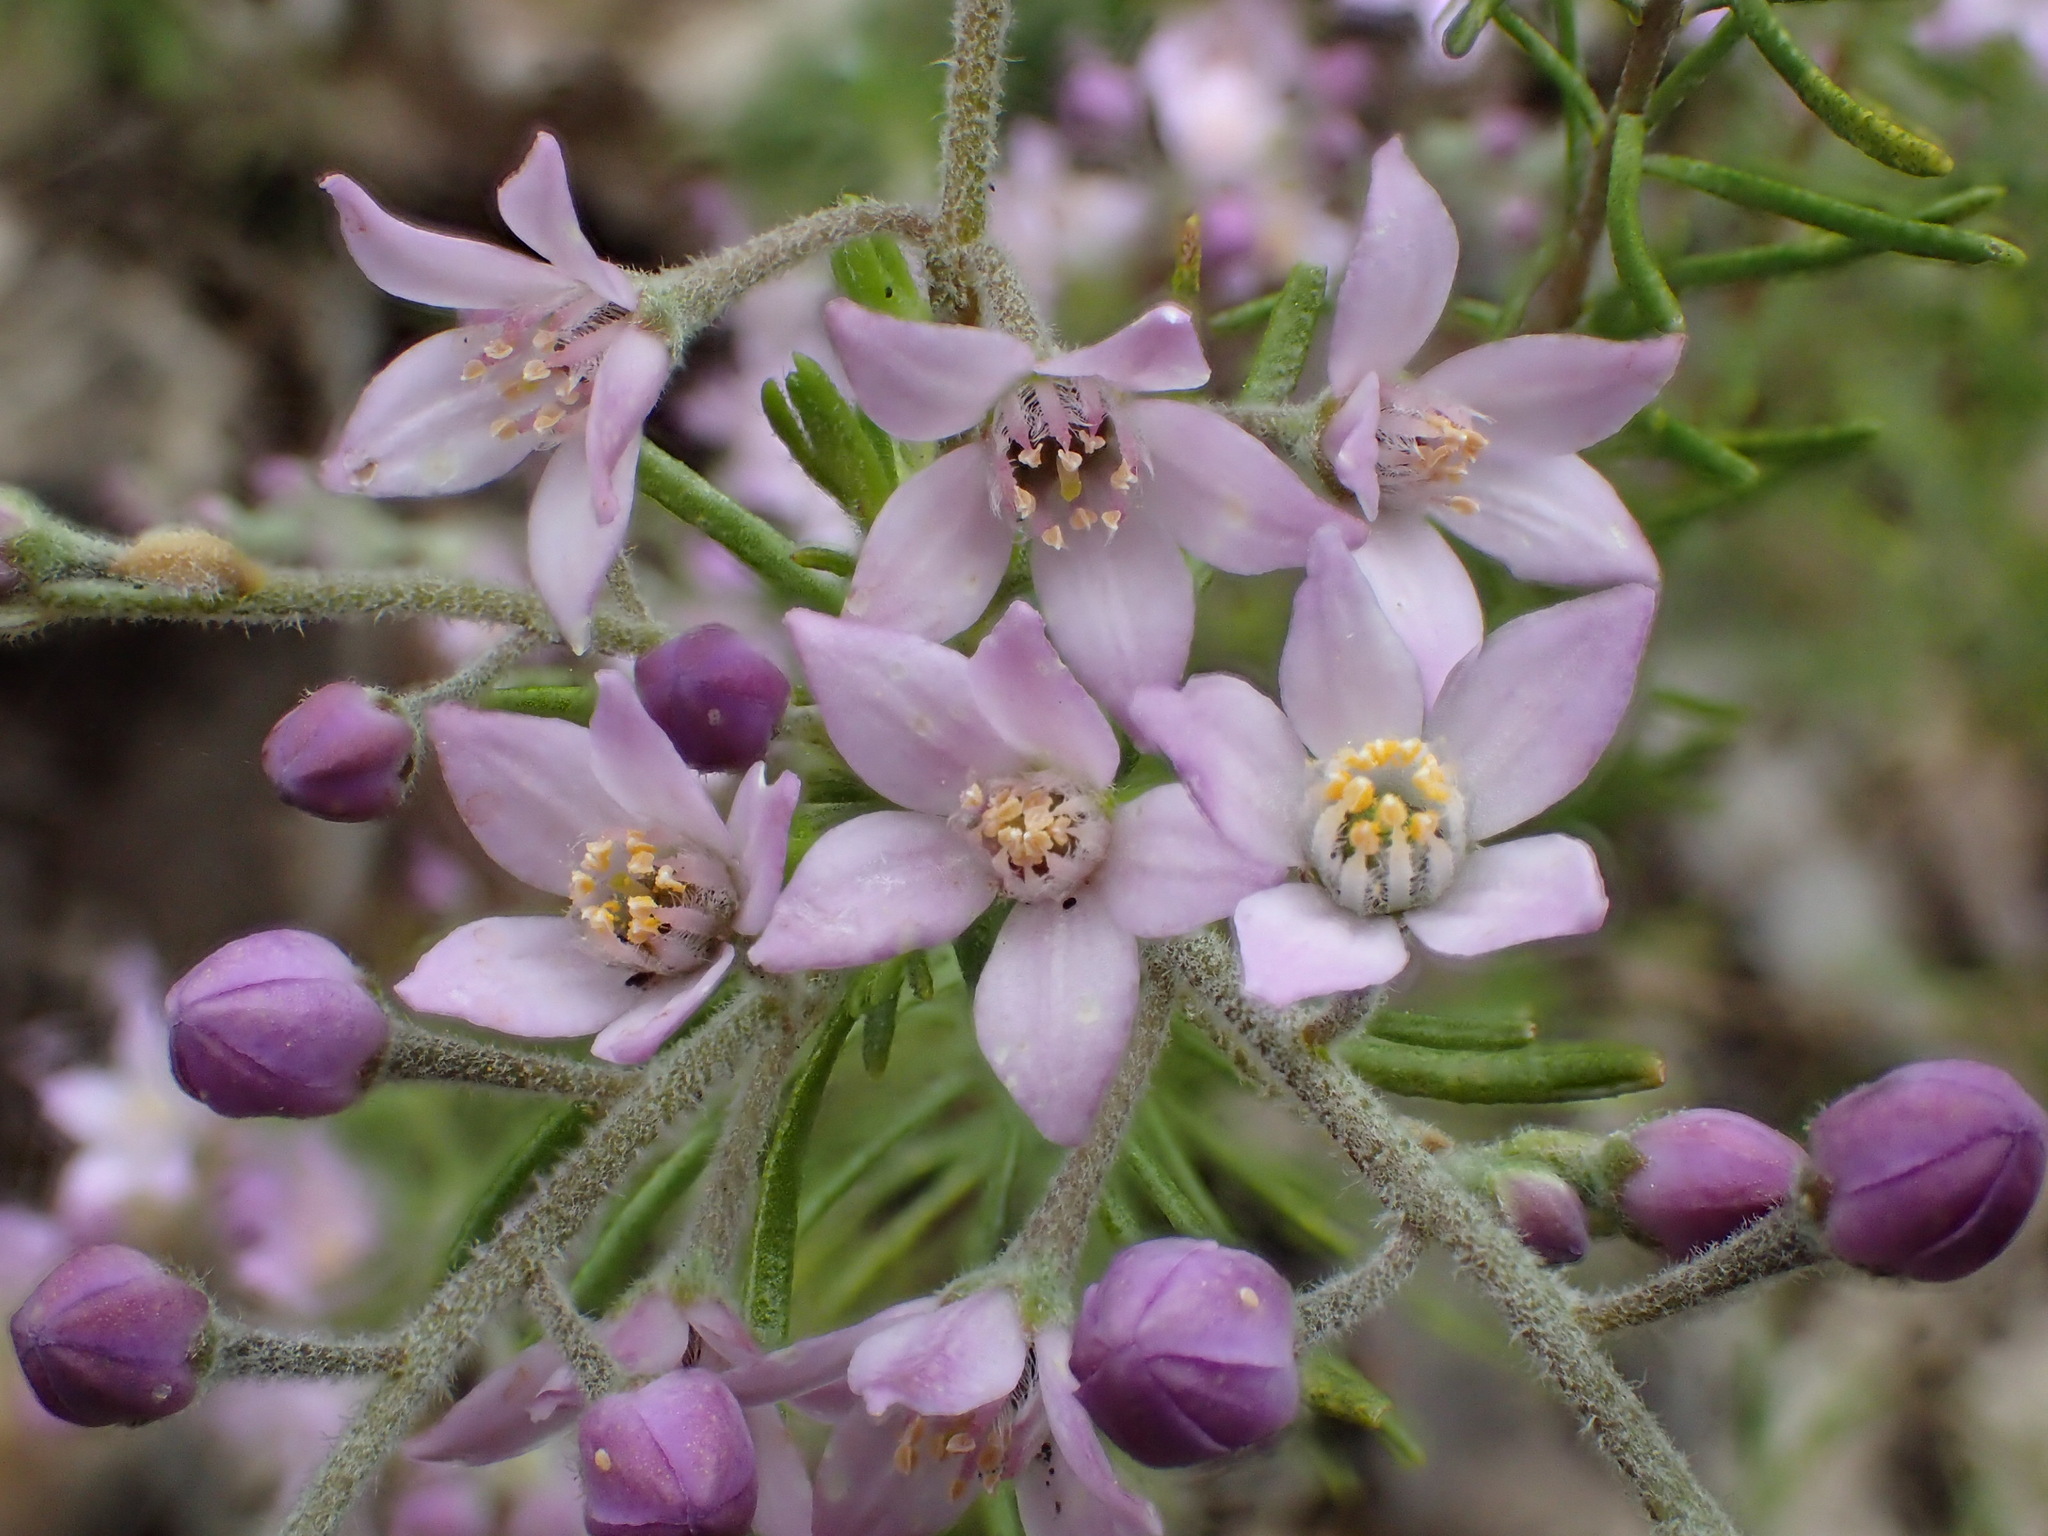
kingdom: Plantae
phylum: Tracheophyta
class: Magnoliopsida
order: Sapindales
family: Rutaceae
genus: Philotheca
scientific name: Philotheca spicata
